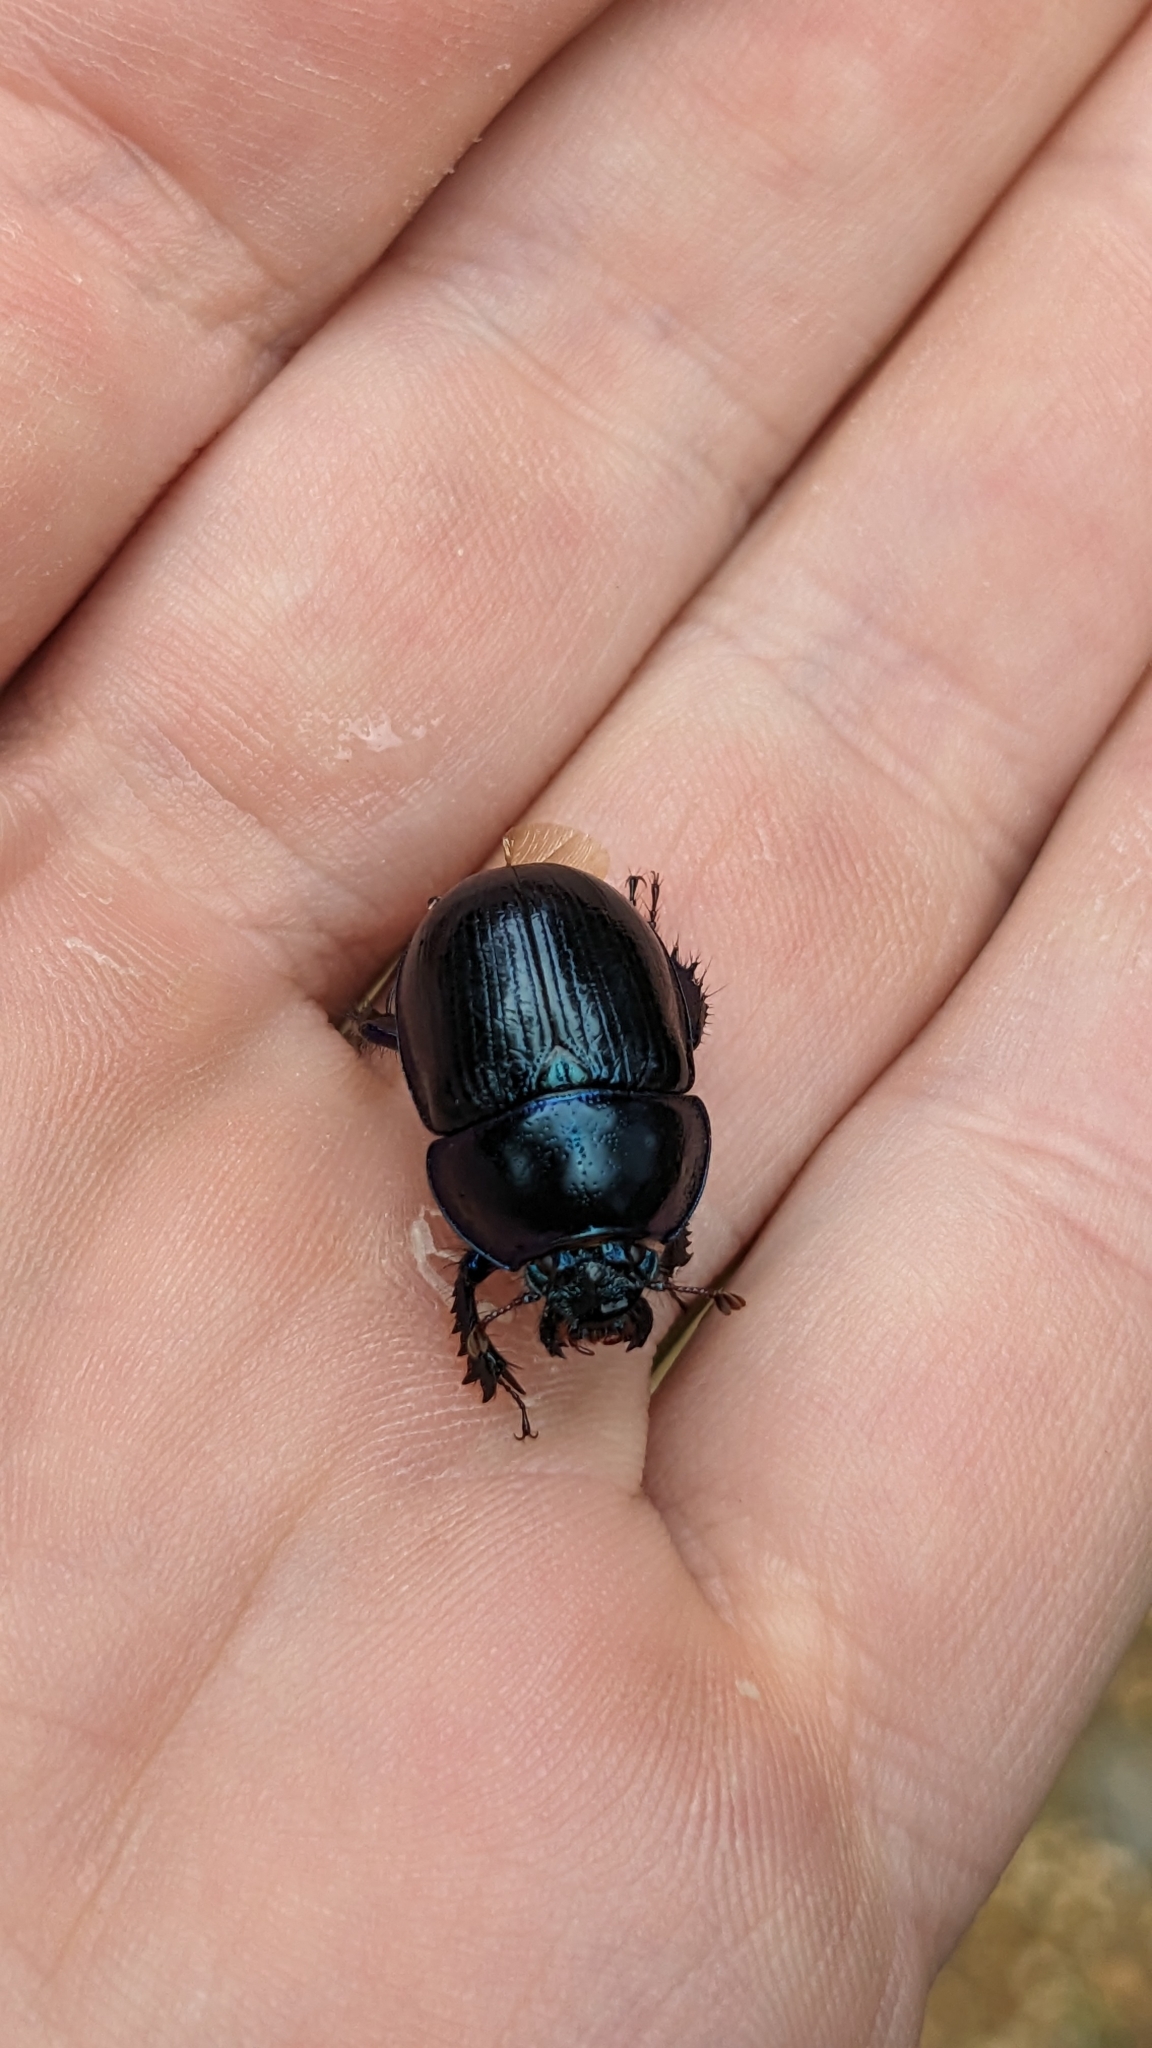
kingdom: Animalia
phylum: Arthropoda
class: Insecta
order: Coleoptera
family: Geotrupidae
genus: Anoplotrupes
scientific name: Anoplotrupes stercorosus
